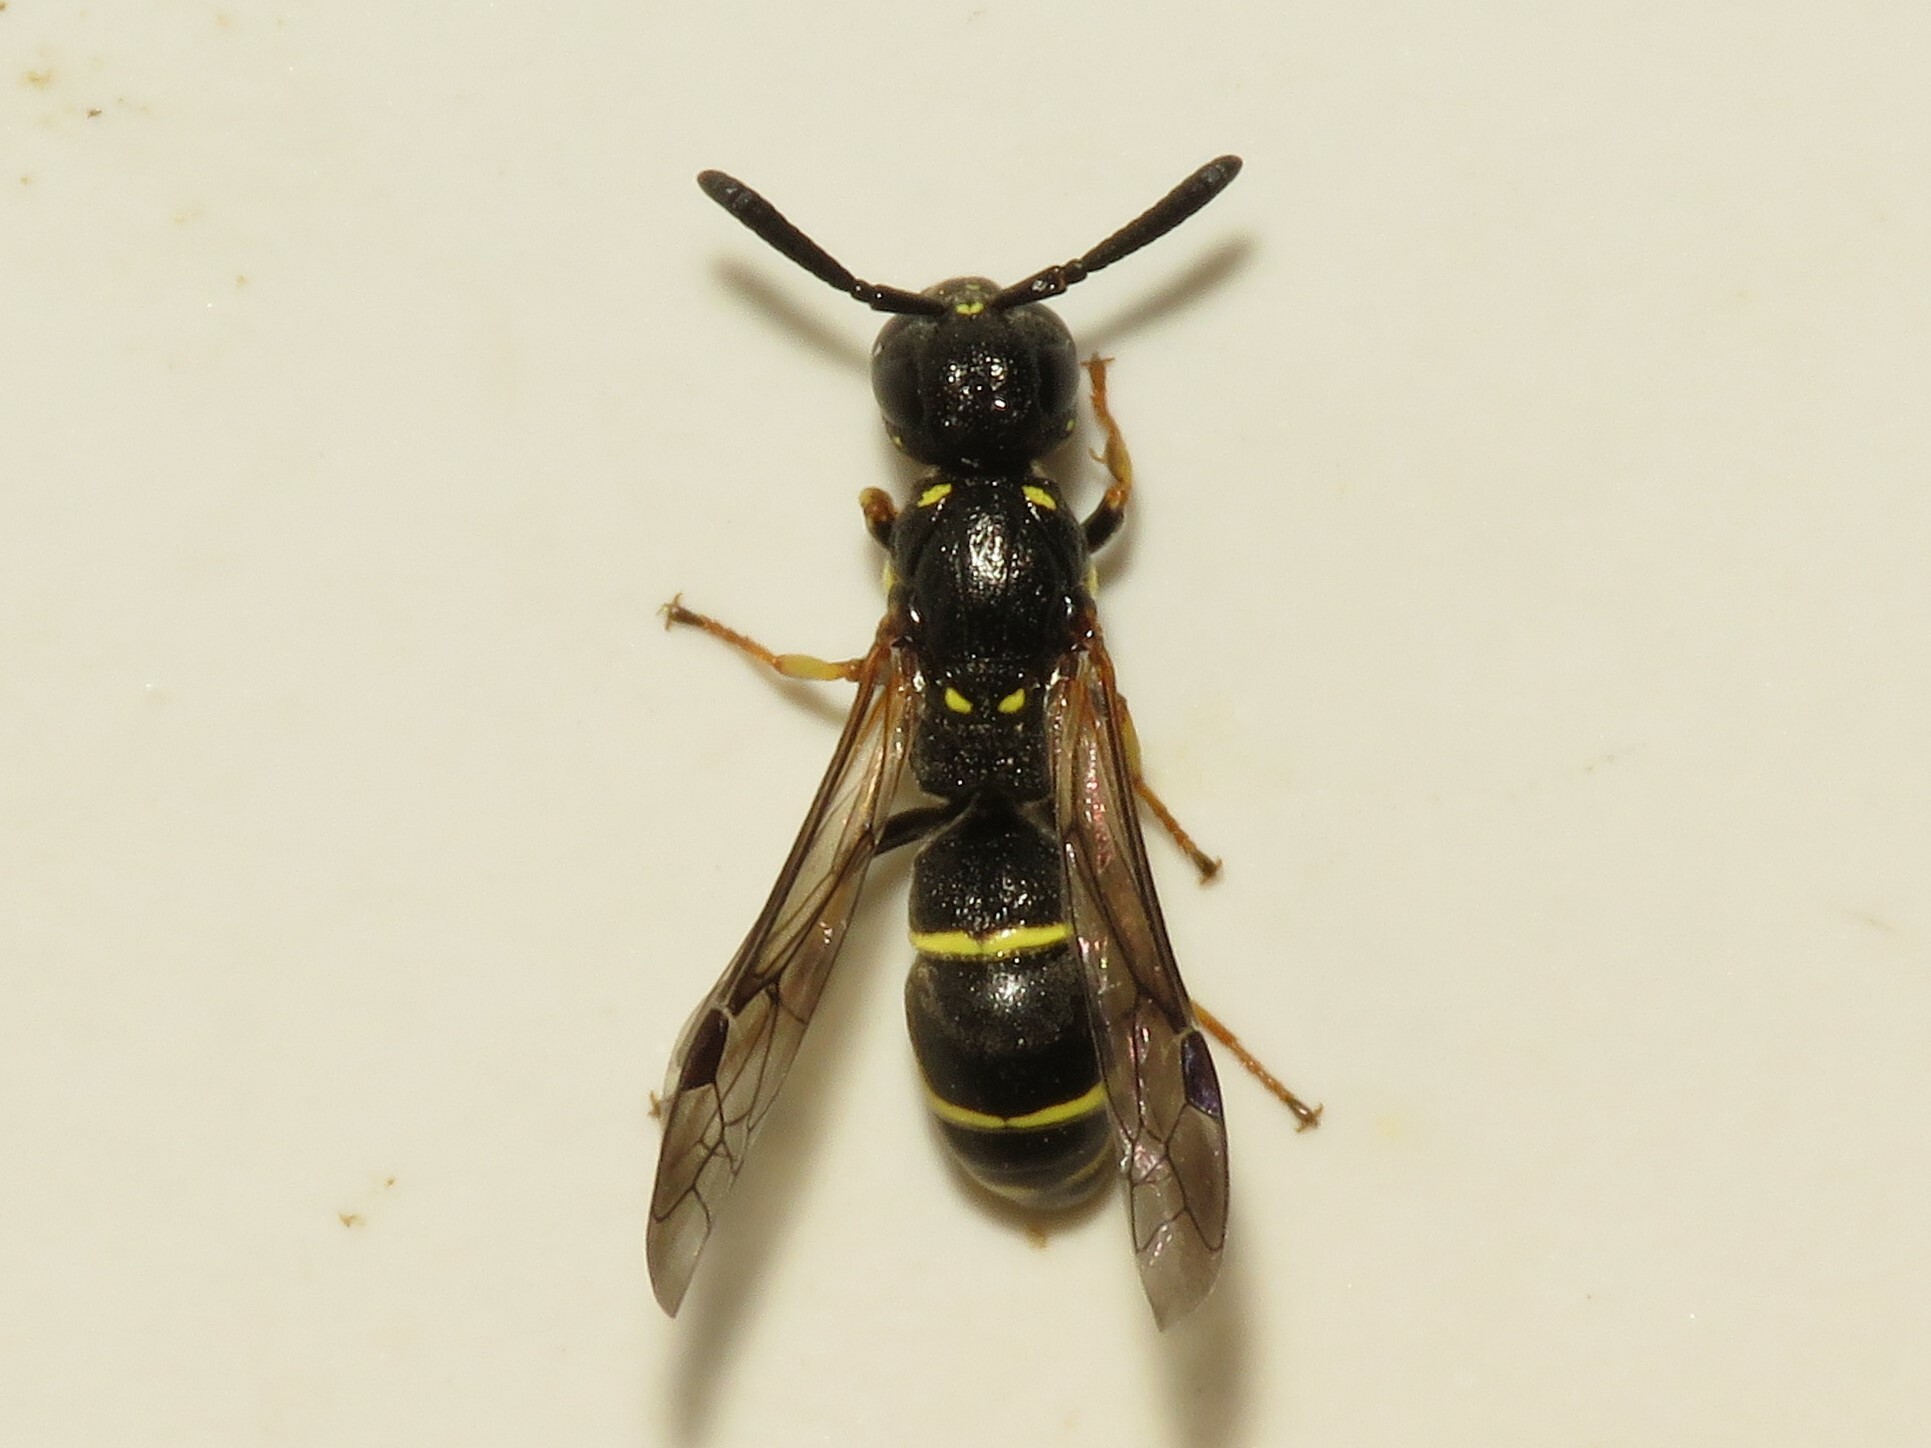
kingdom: Animalia
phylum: Arthropoda
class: Insecta
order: Hymenoptera
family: Eumenidae
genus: Symmorphus
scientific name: Symmorphus
